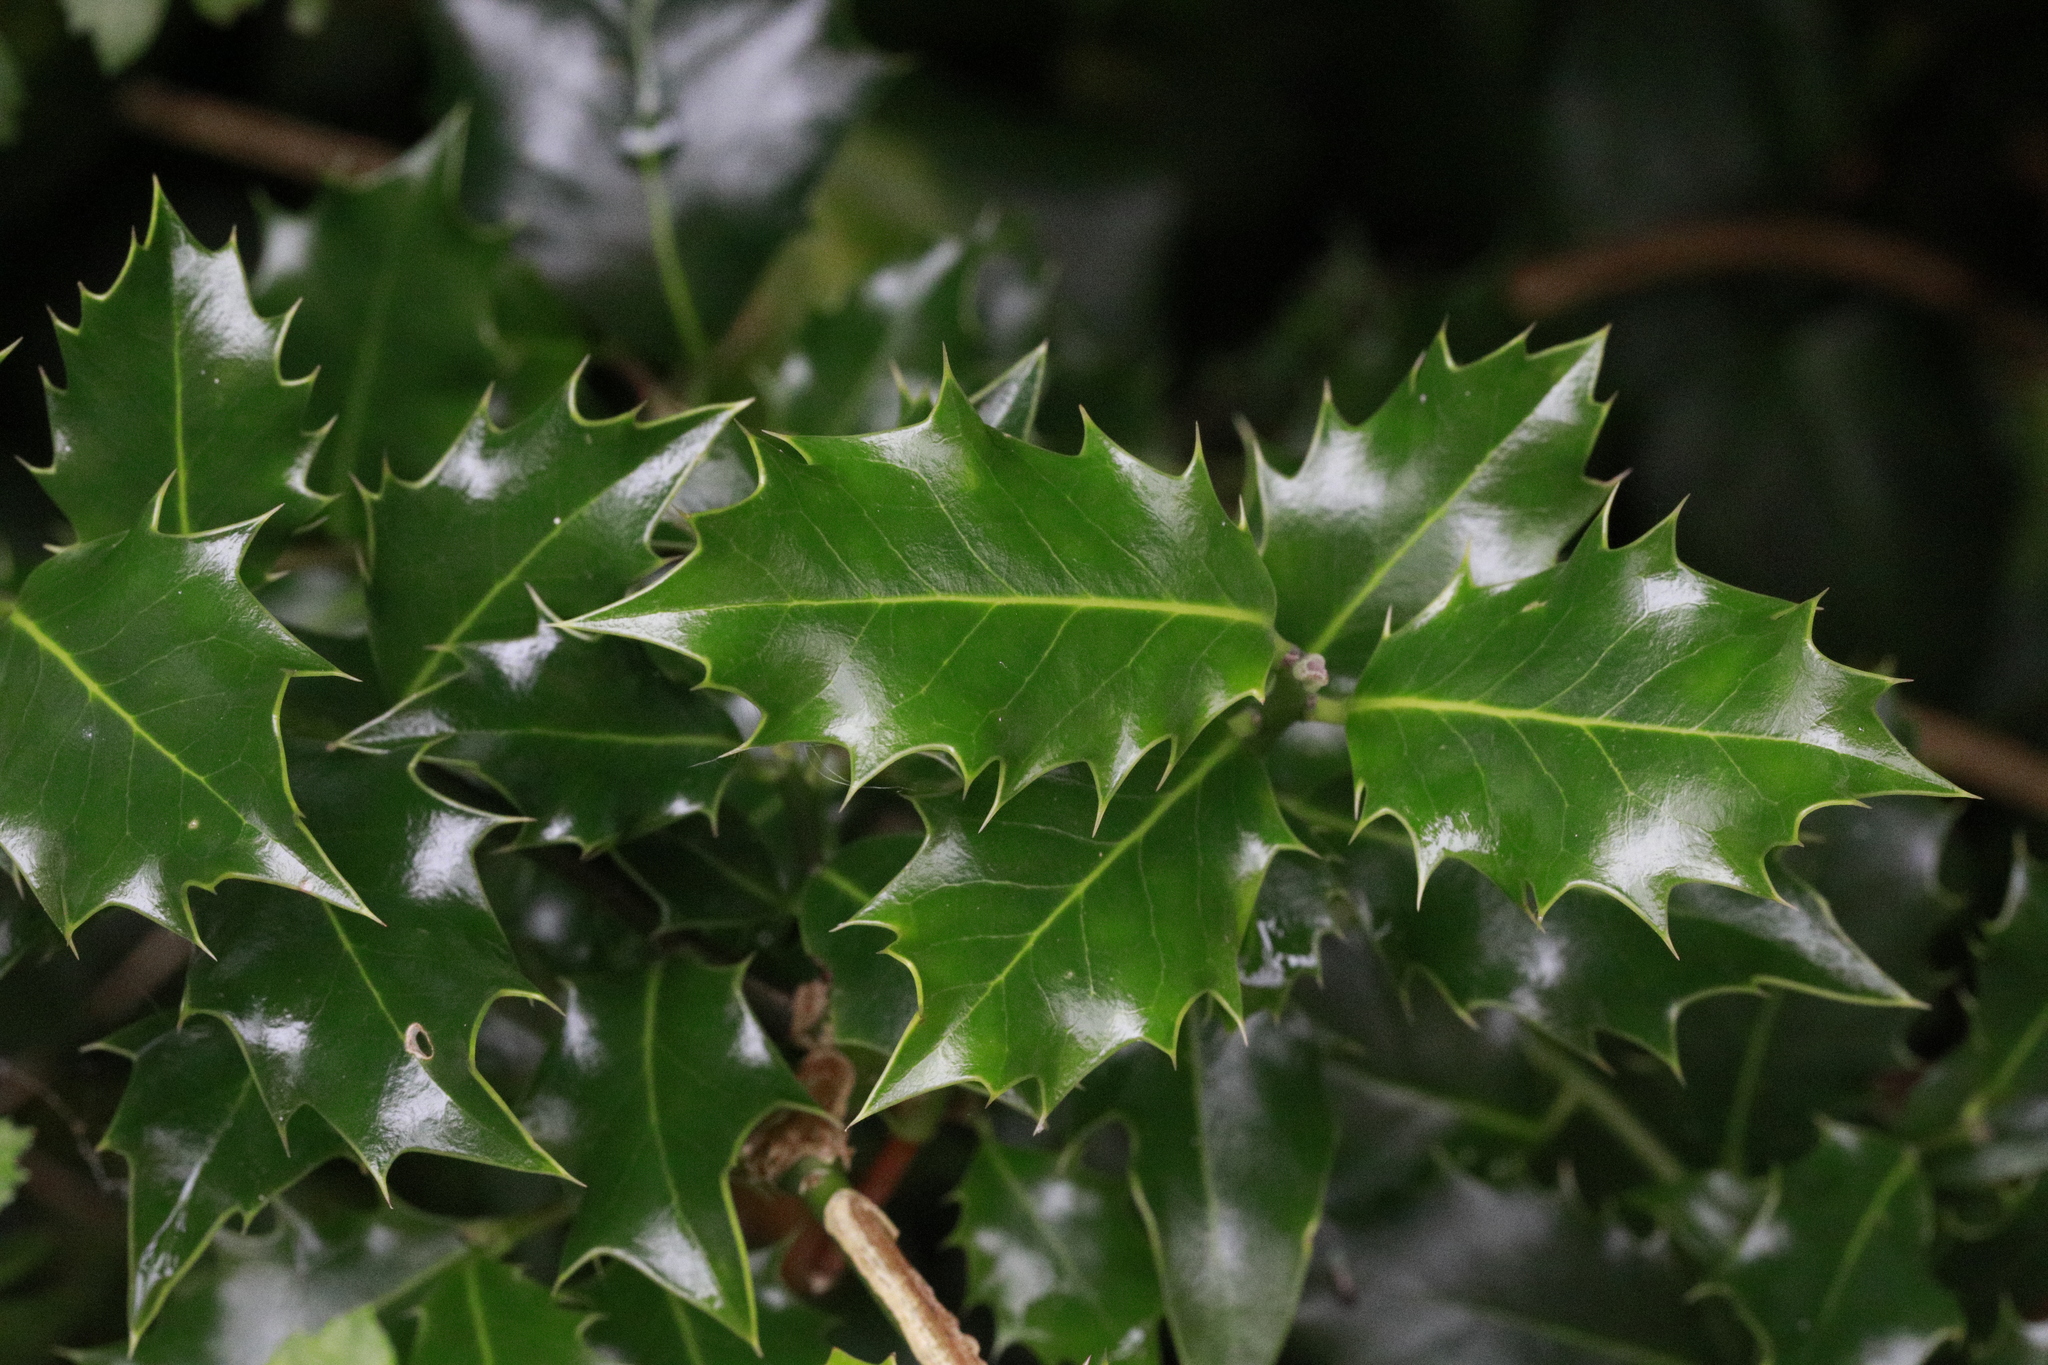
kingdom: Plantae
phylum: Tracheophyta
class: Magnoliopsida
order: Aquifoliales
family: Aquifoliaceae
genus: Ilex
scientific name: Ilex aquifolium
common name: English holly
